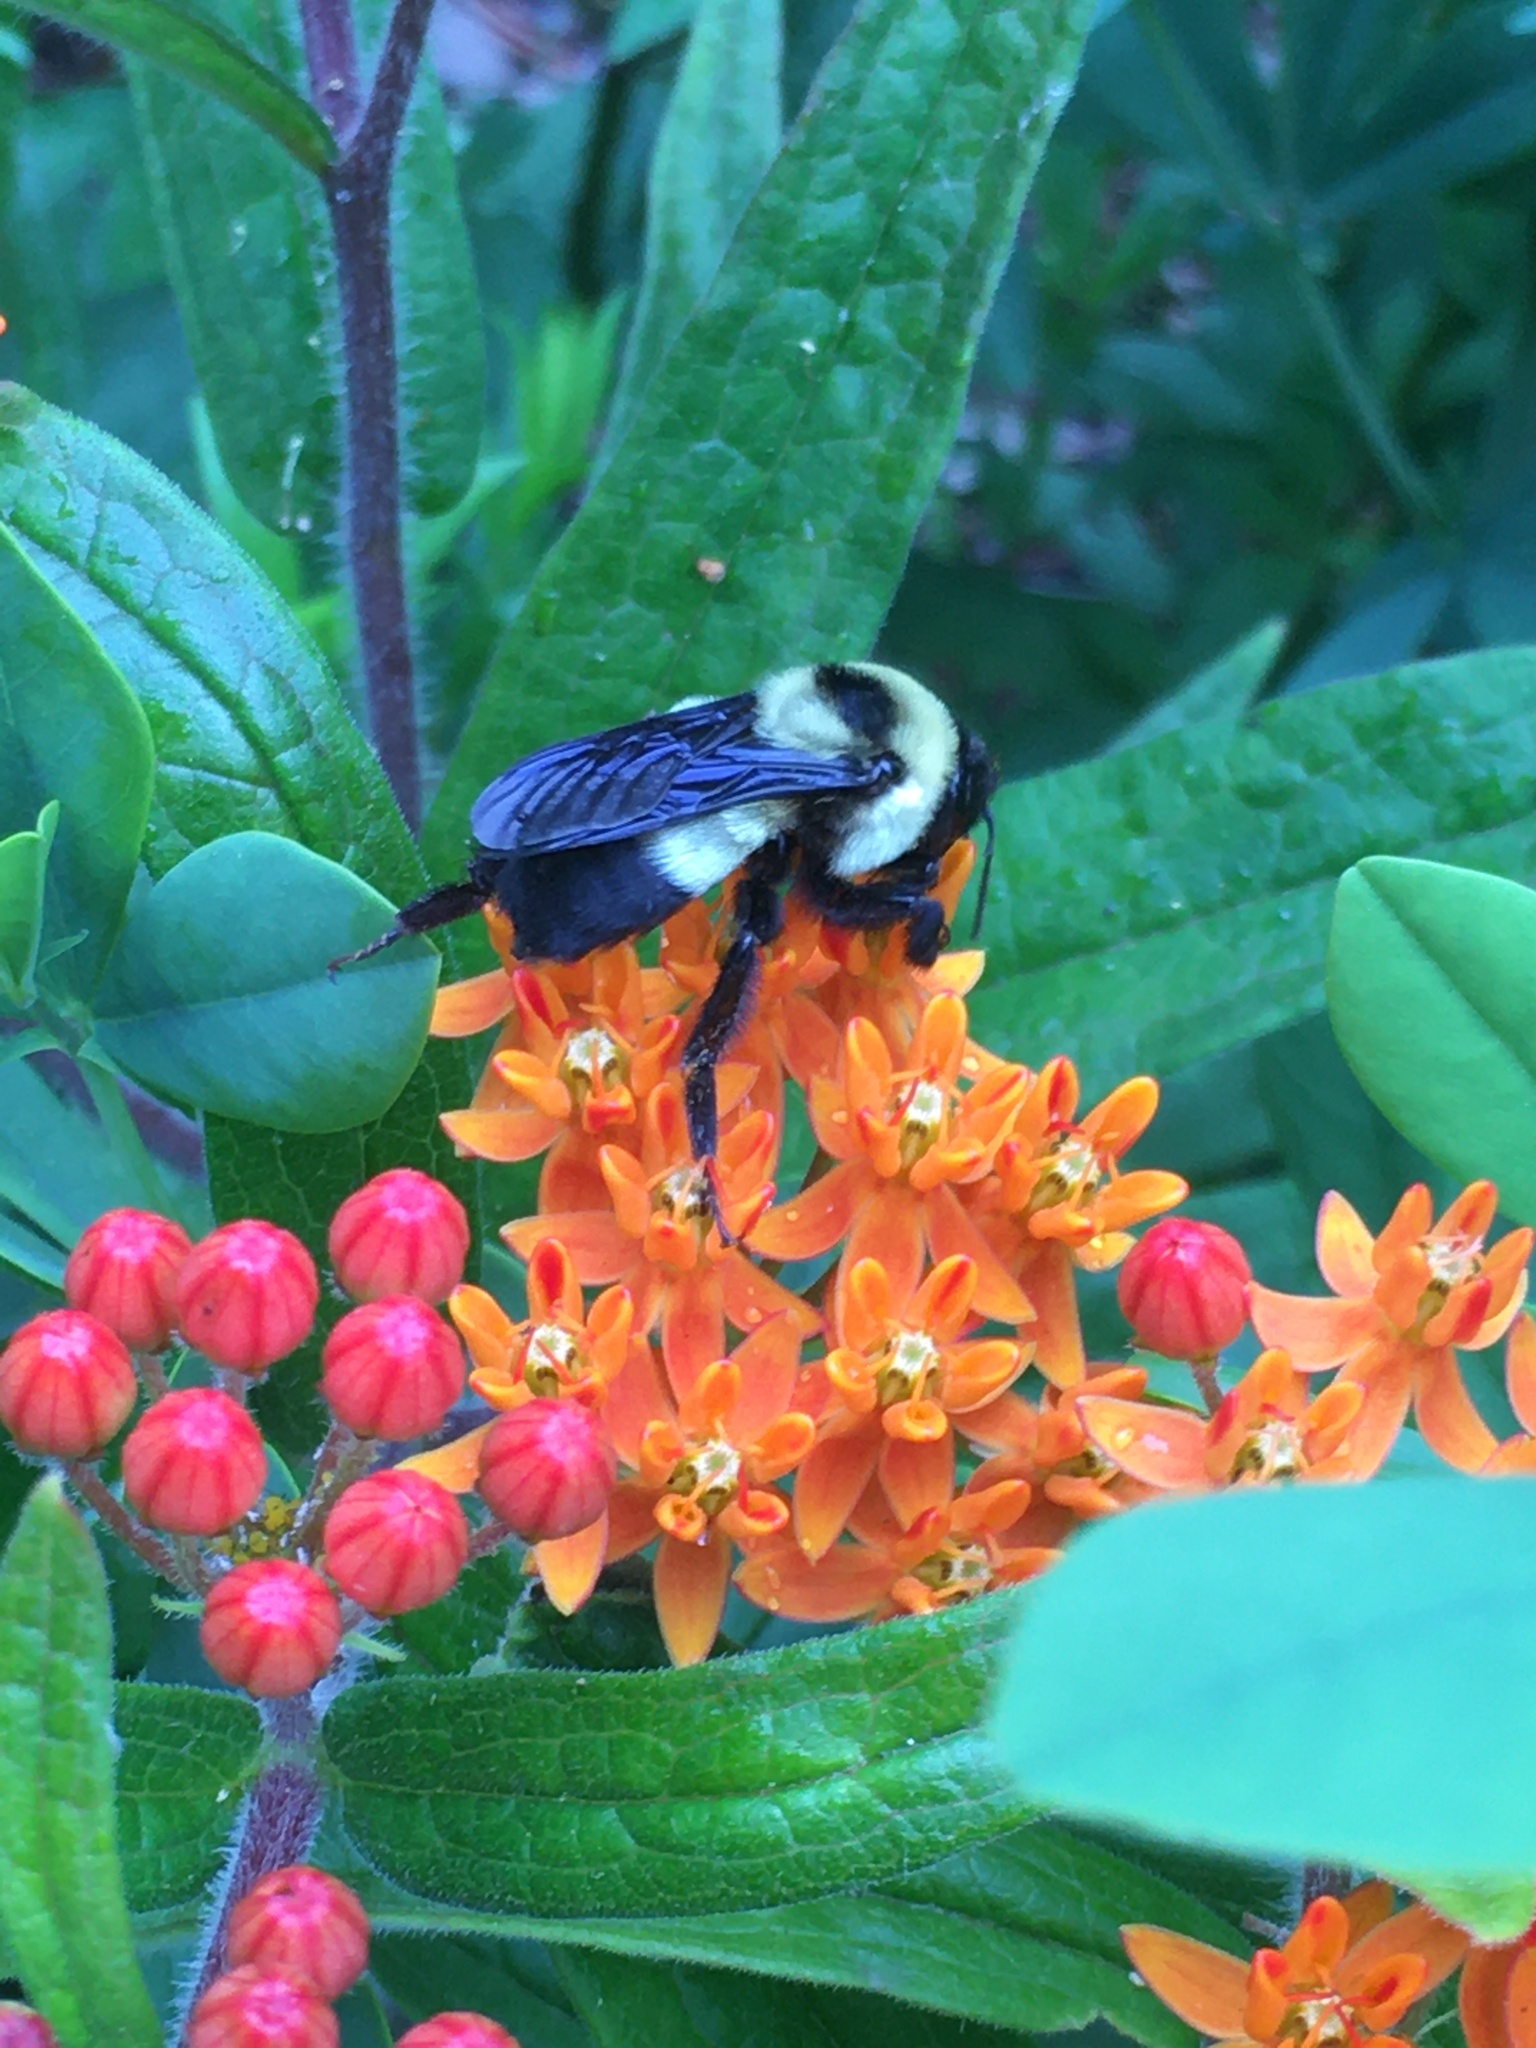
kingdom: Animalia
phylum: Arthropoda
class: Insecta
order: Hymenoptera
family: Apidae
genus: Bombus
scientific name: Bombus fraternus
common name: Southern plains bumble bee
